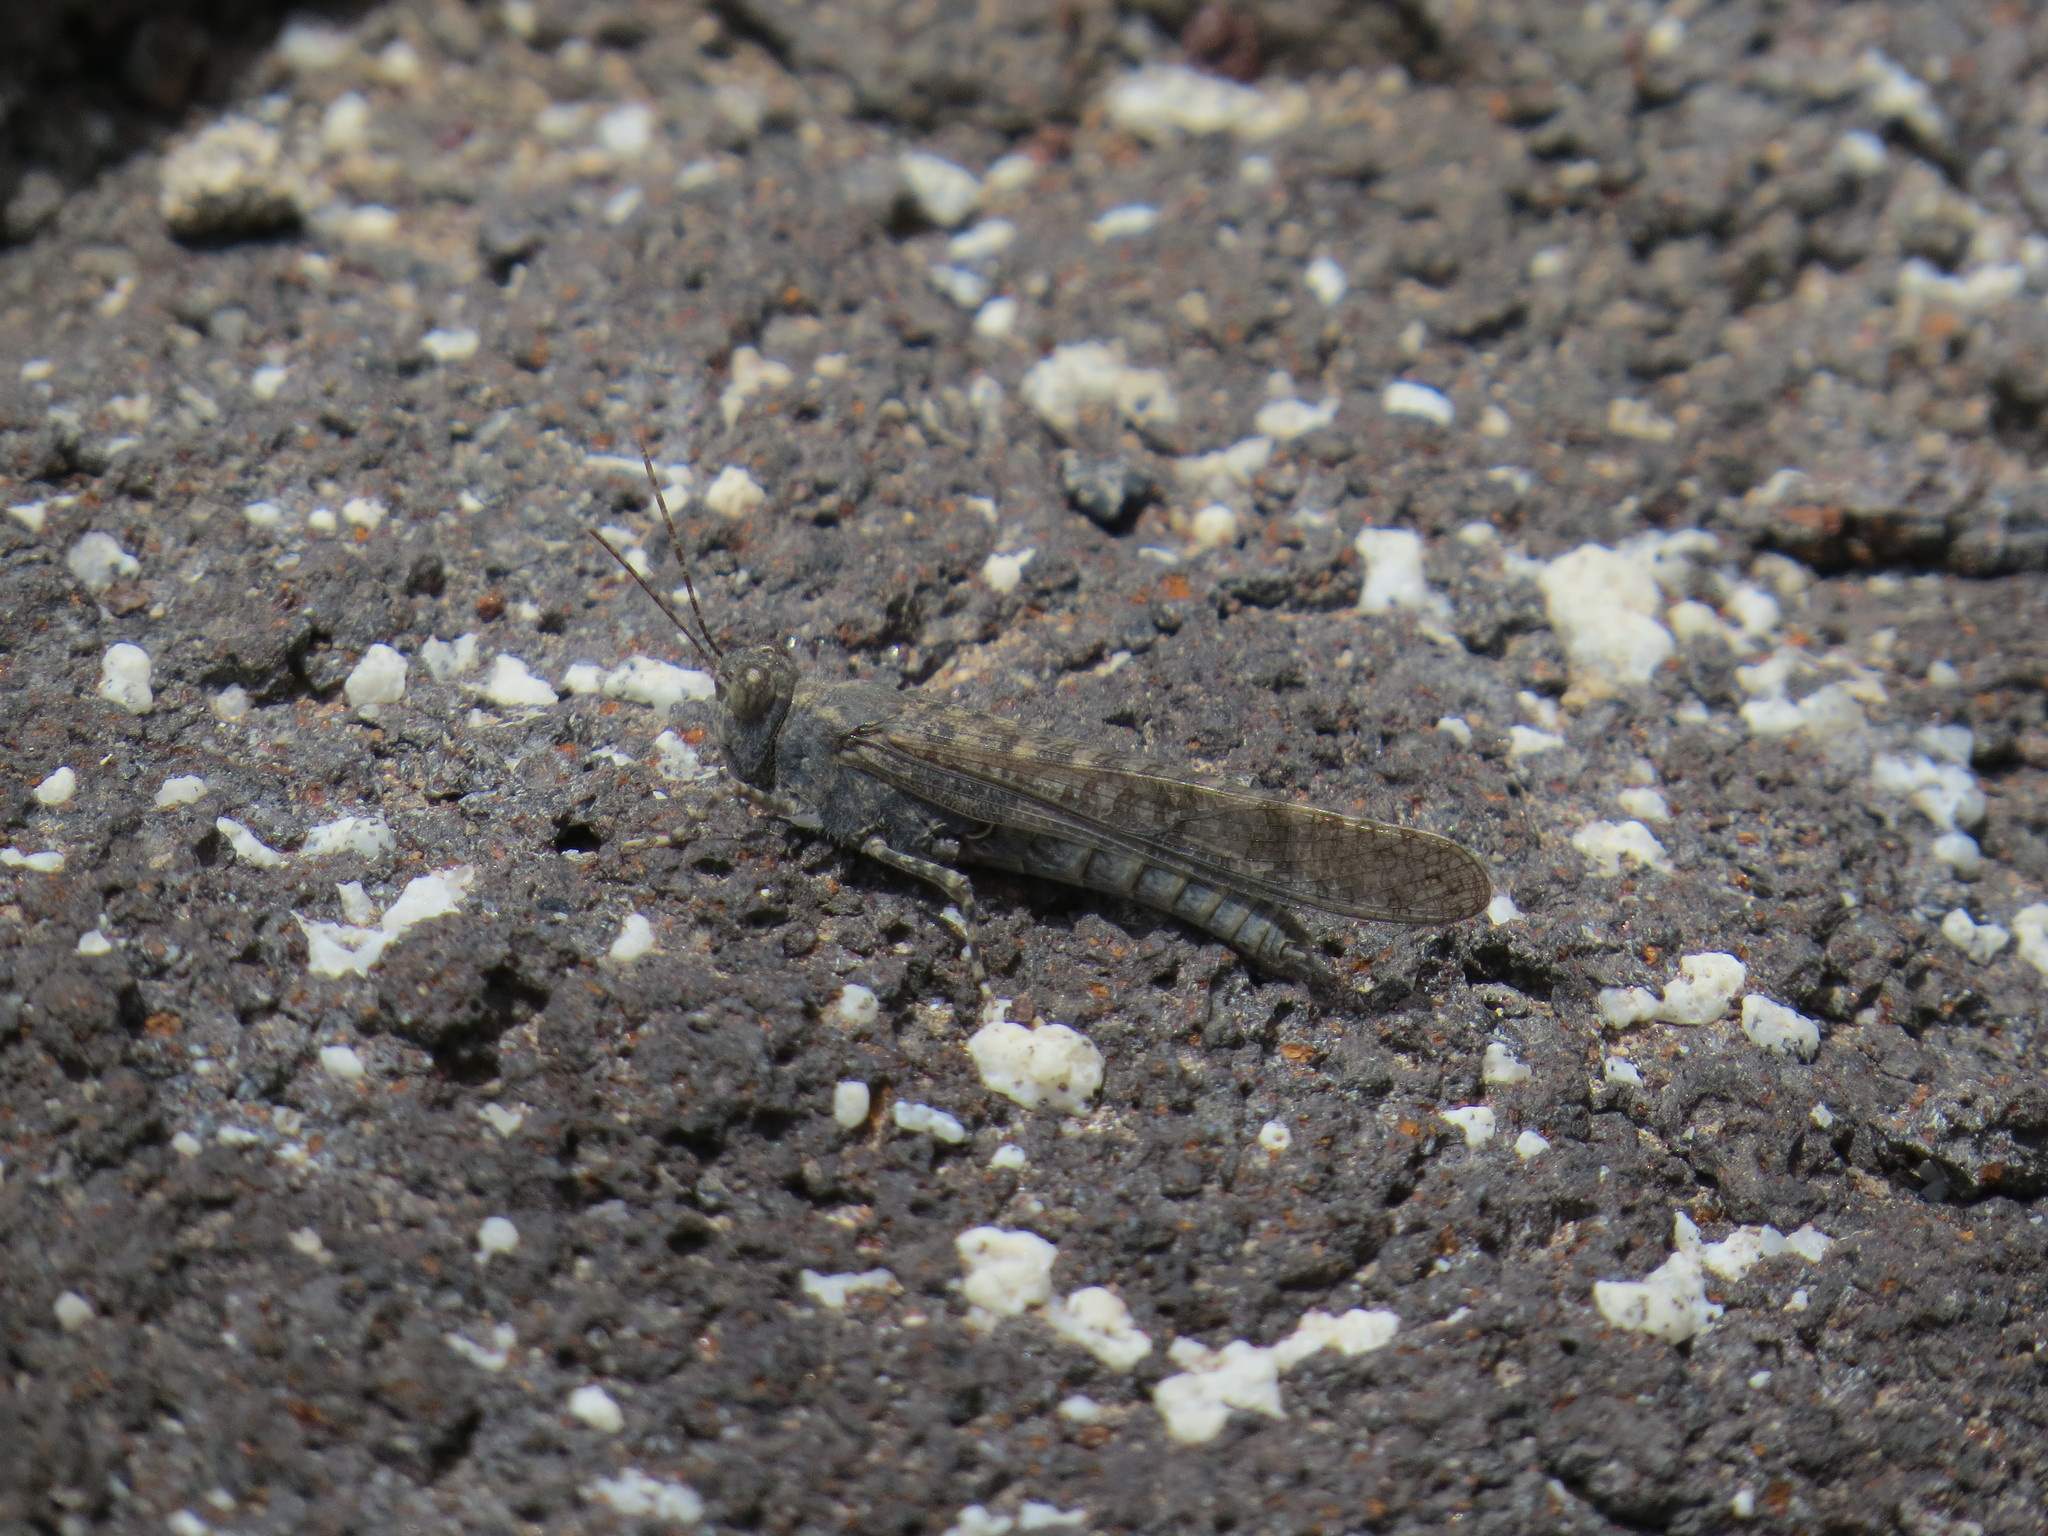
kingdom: Animalia
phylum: Arthropoda
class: Insecta
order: Orthoptera
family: Acrididae
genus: Sphingonotus
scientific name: Sphingonotus rubescens
